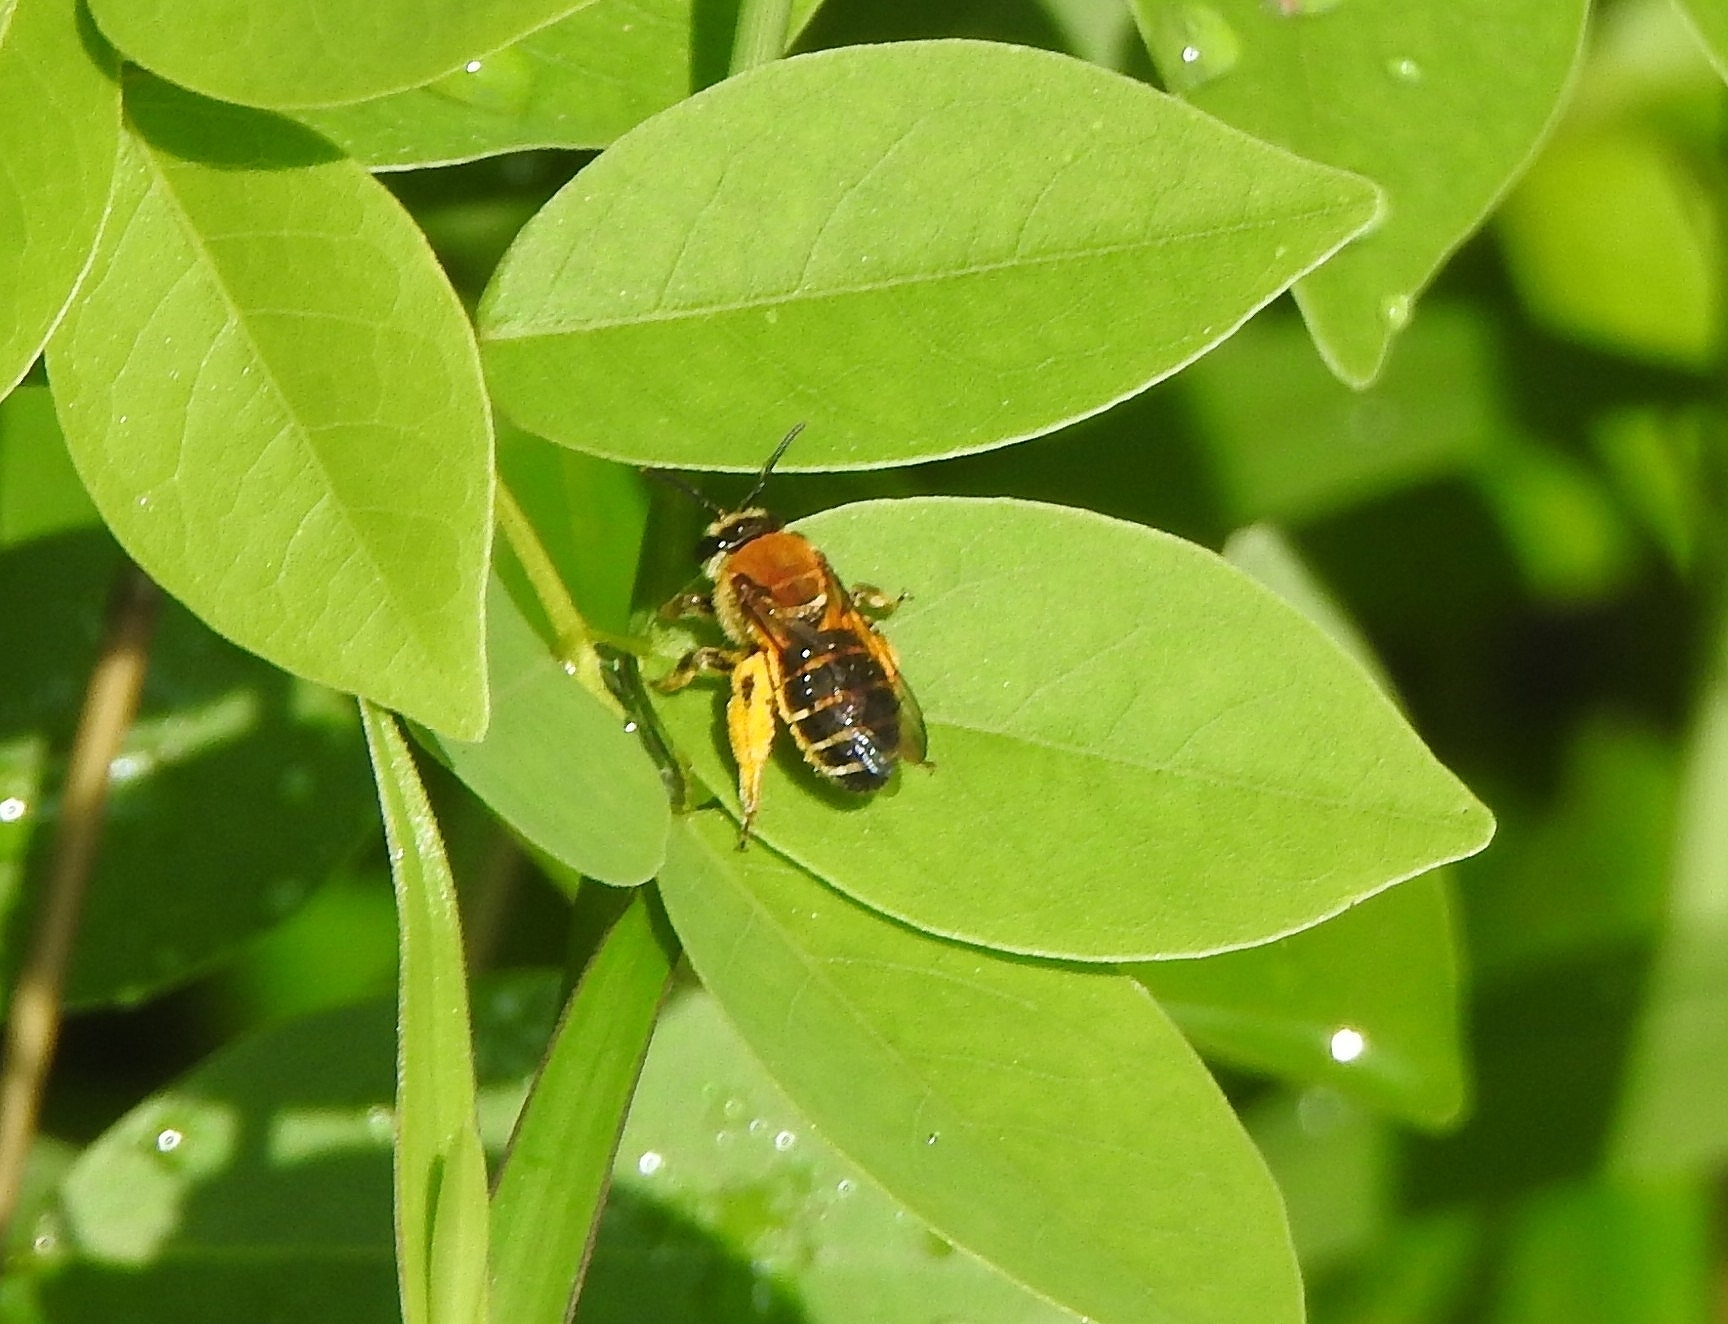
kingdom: Animalia
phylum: Arthropoda
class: Insecta
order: Hymenoptera
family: Halictidae
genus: Nomia
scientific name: Nomia thoracica
